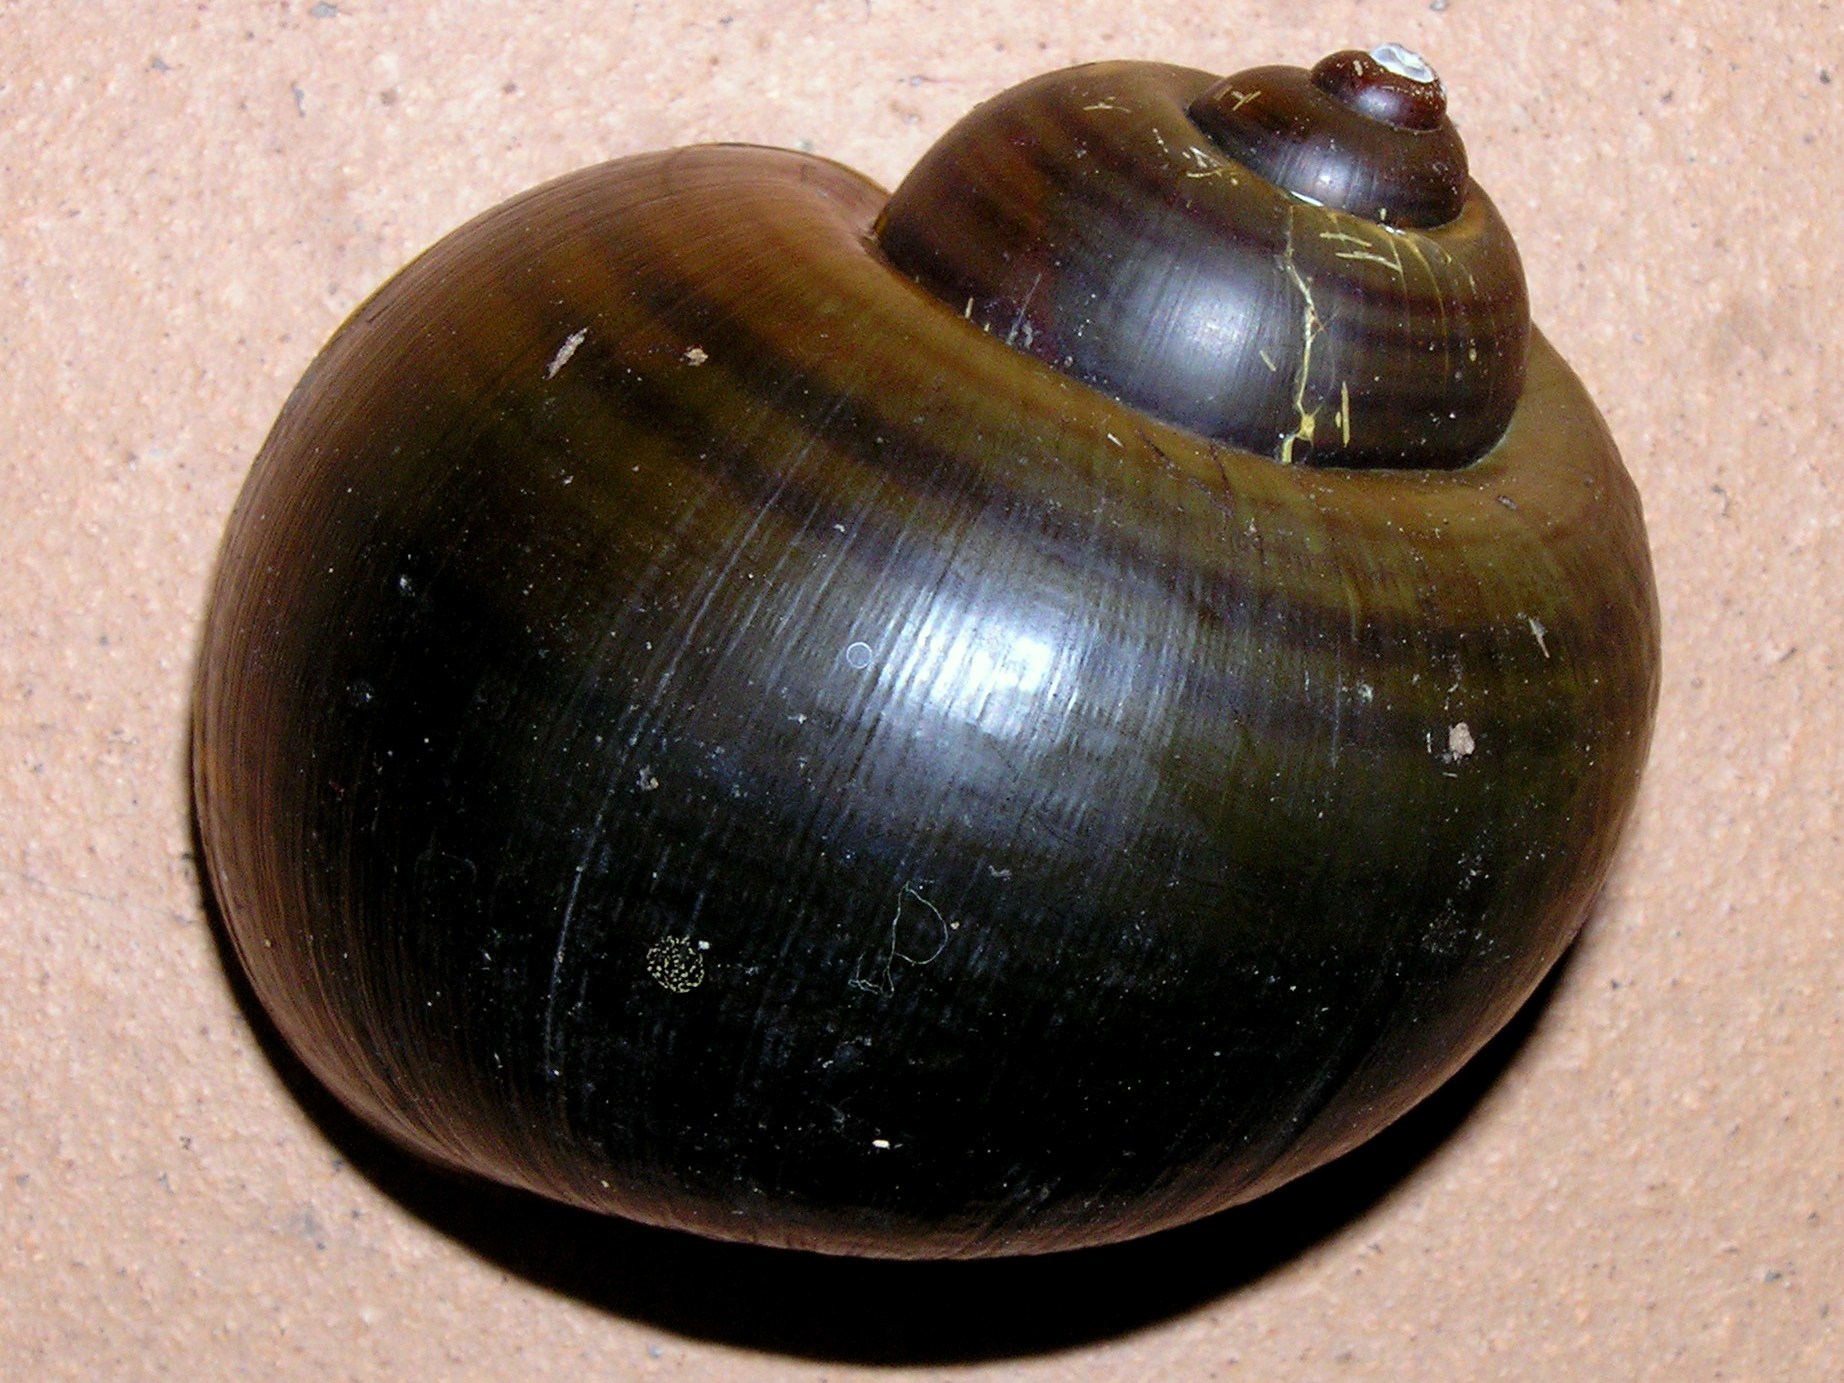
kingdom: Animalia
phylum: Mollusca
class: Gastropoda
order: Architaenioglossa
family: Ampullariidae
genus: Pomacea
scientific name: Pomacea canaliculata
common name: Channeled applesnail
